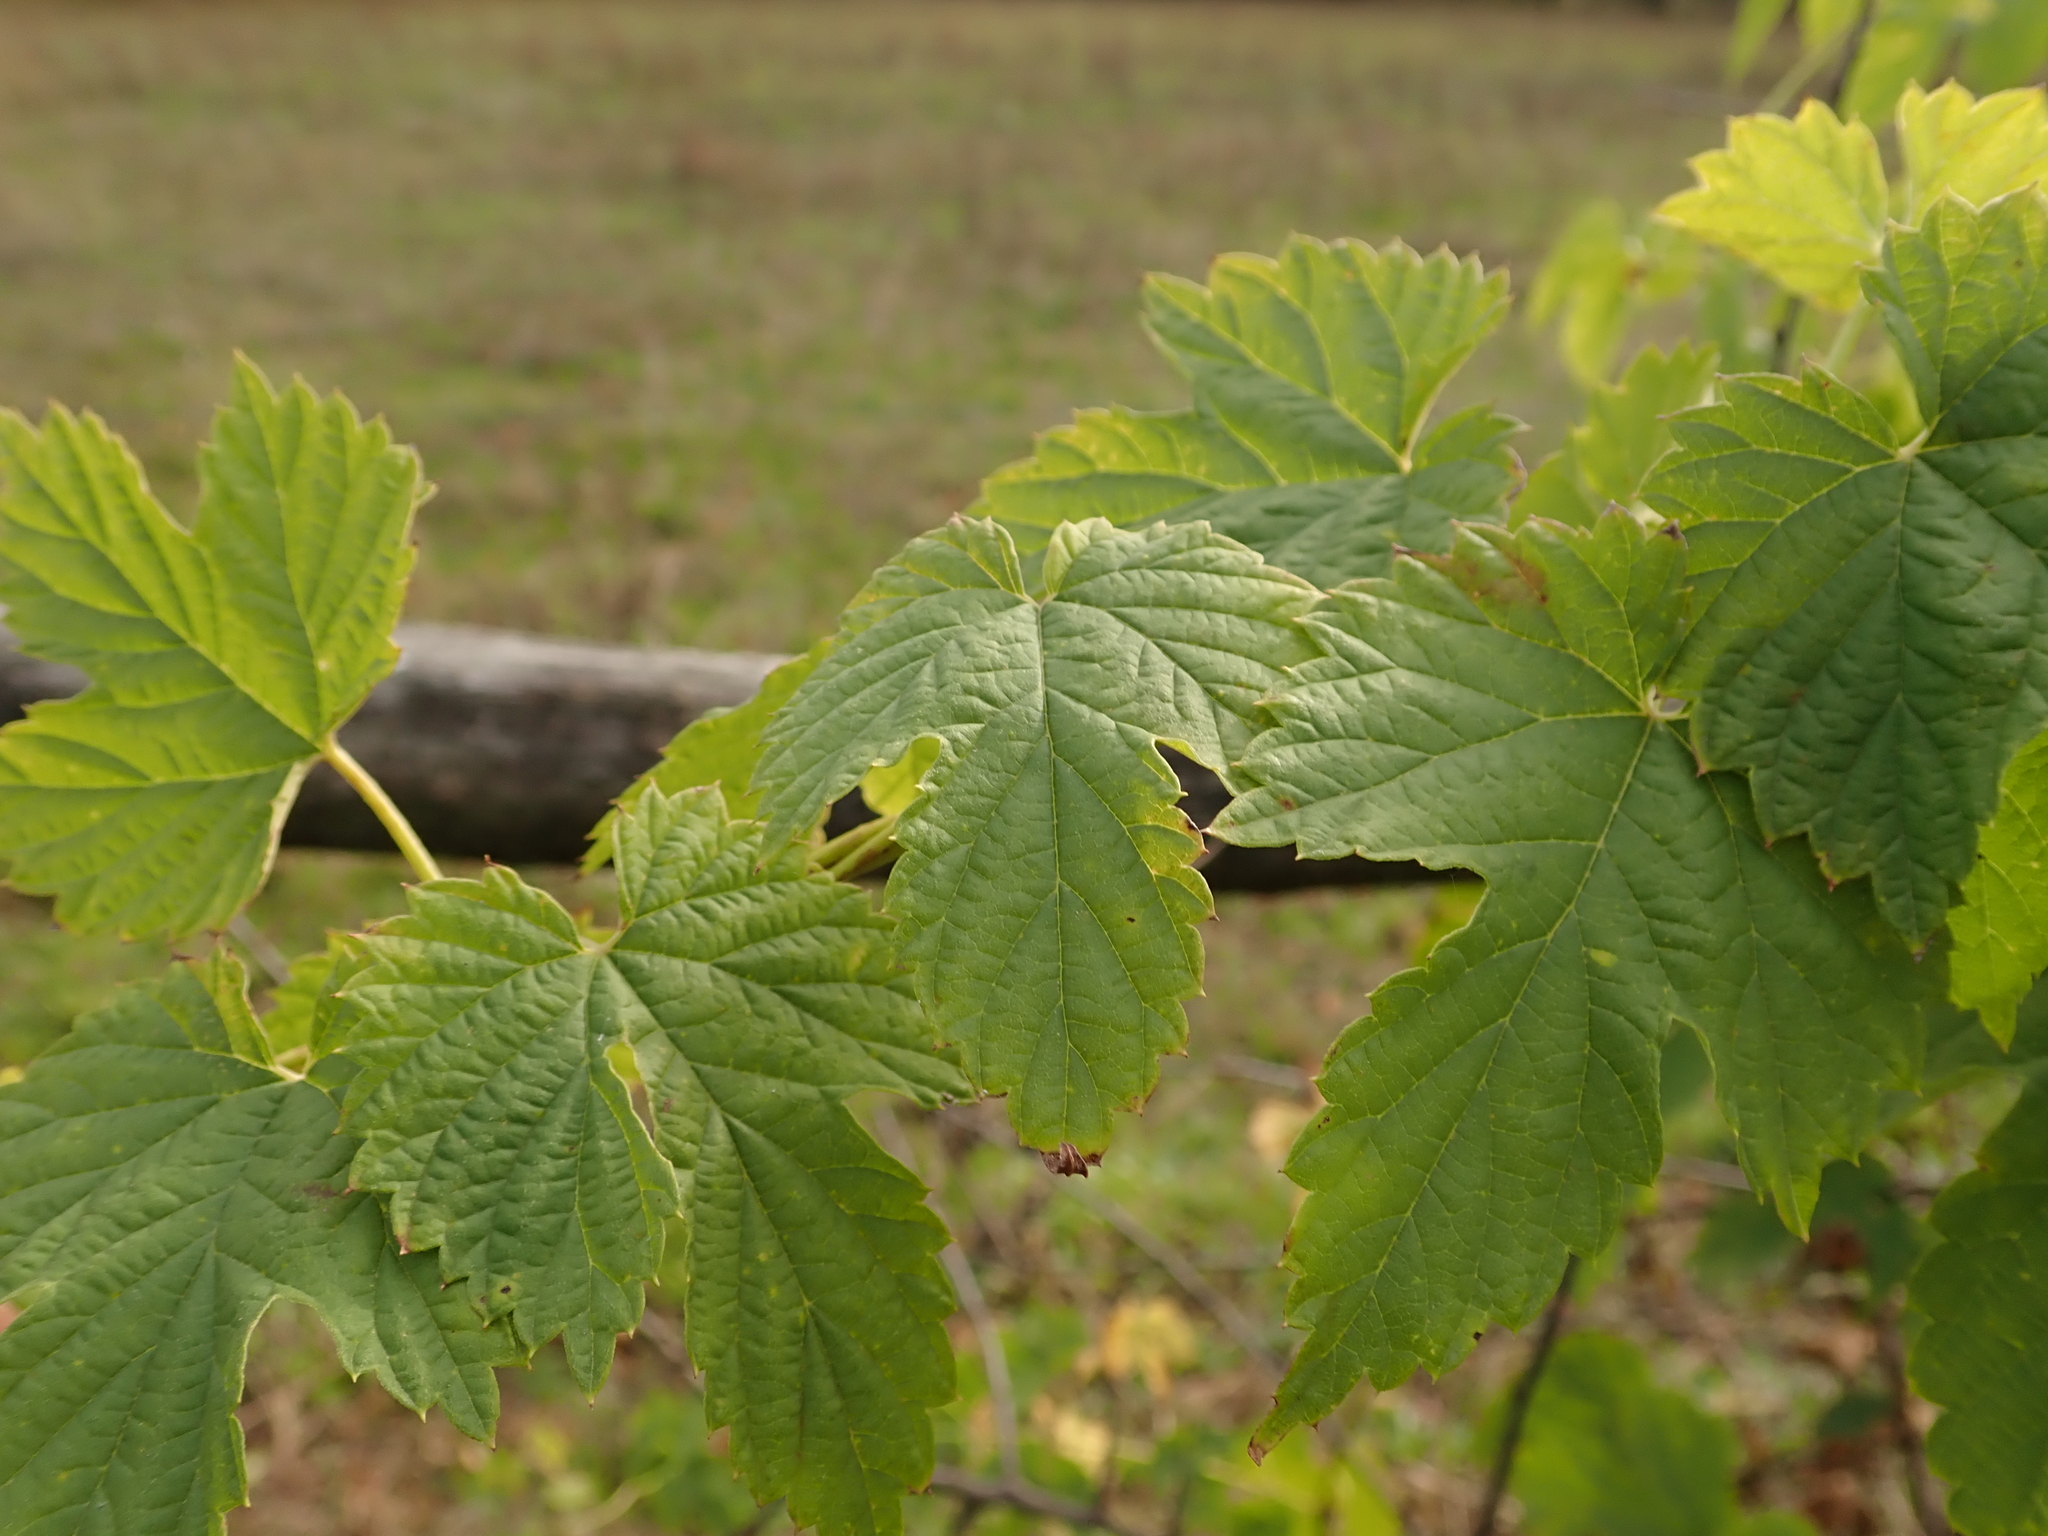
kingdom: Plantae
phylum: Tracheophyta
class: Magnoliopsida
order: Rosales
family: Cannabaceae
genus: Humulus
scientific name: Humulus lupulus
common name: Hop
